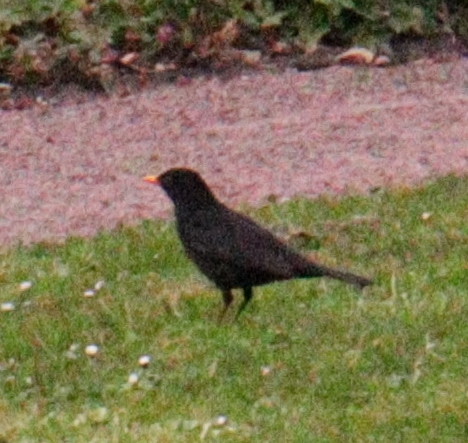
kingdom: Animalia
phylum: Chordata
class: Aves
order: Passeriformes
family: Turdidae
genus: Turdus
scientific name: Turdus merula
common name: Common blackbird
